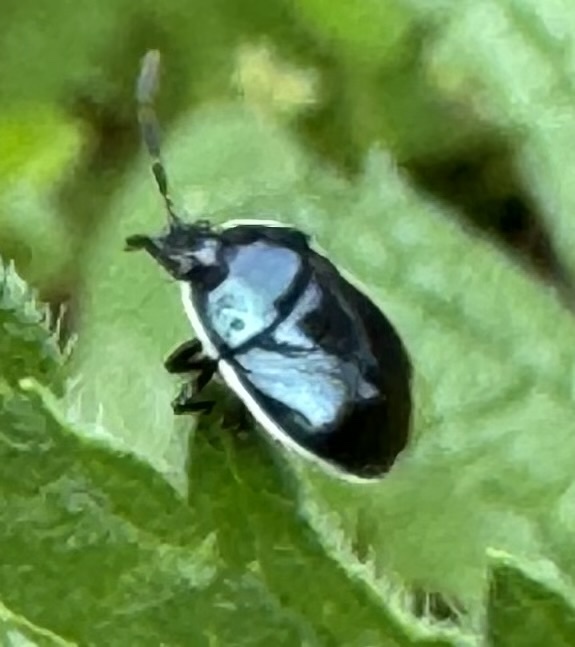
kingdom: Animalia
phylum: Arthropoda
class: Insecta
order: Hemiptera
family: Cydnidae
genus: Sehirus
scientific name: Sehirus cinctus
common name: White-margined burrower bug
